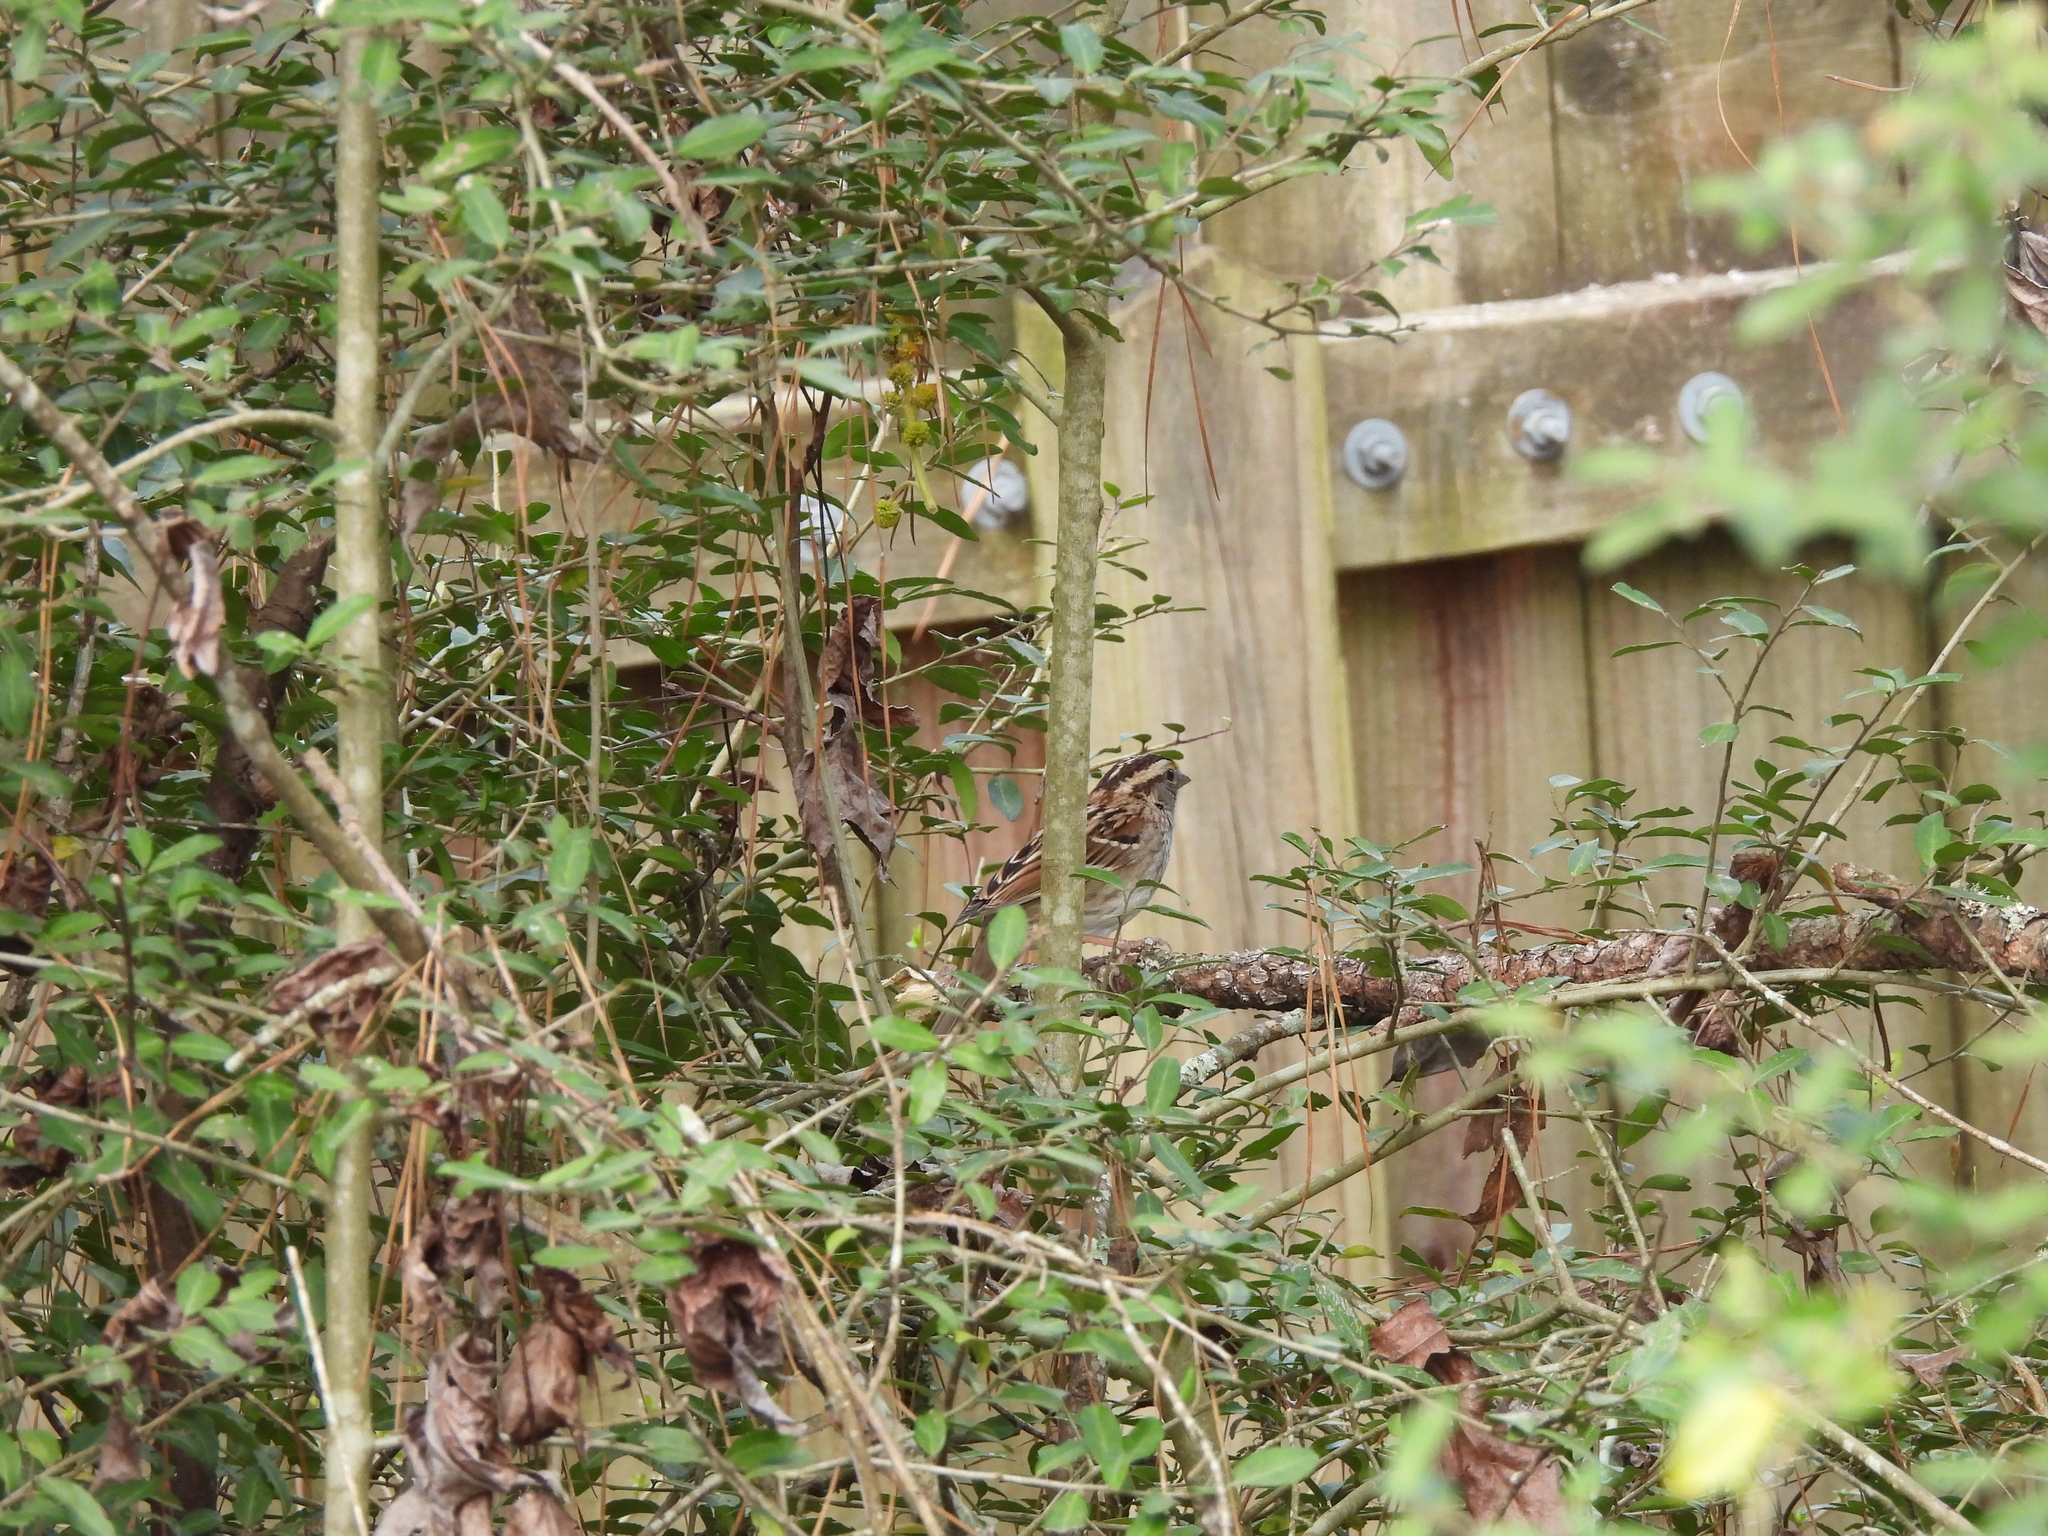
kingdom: Animalia
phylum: Chordata
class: Aves
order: Passeriformes
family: Passerellidae
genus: Zonotrichia
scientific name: Zonotrichia albicollis
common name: White-throated sparrow
